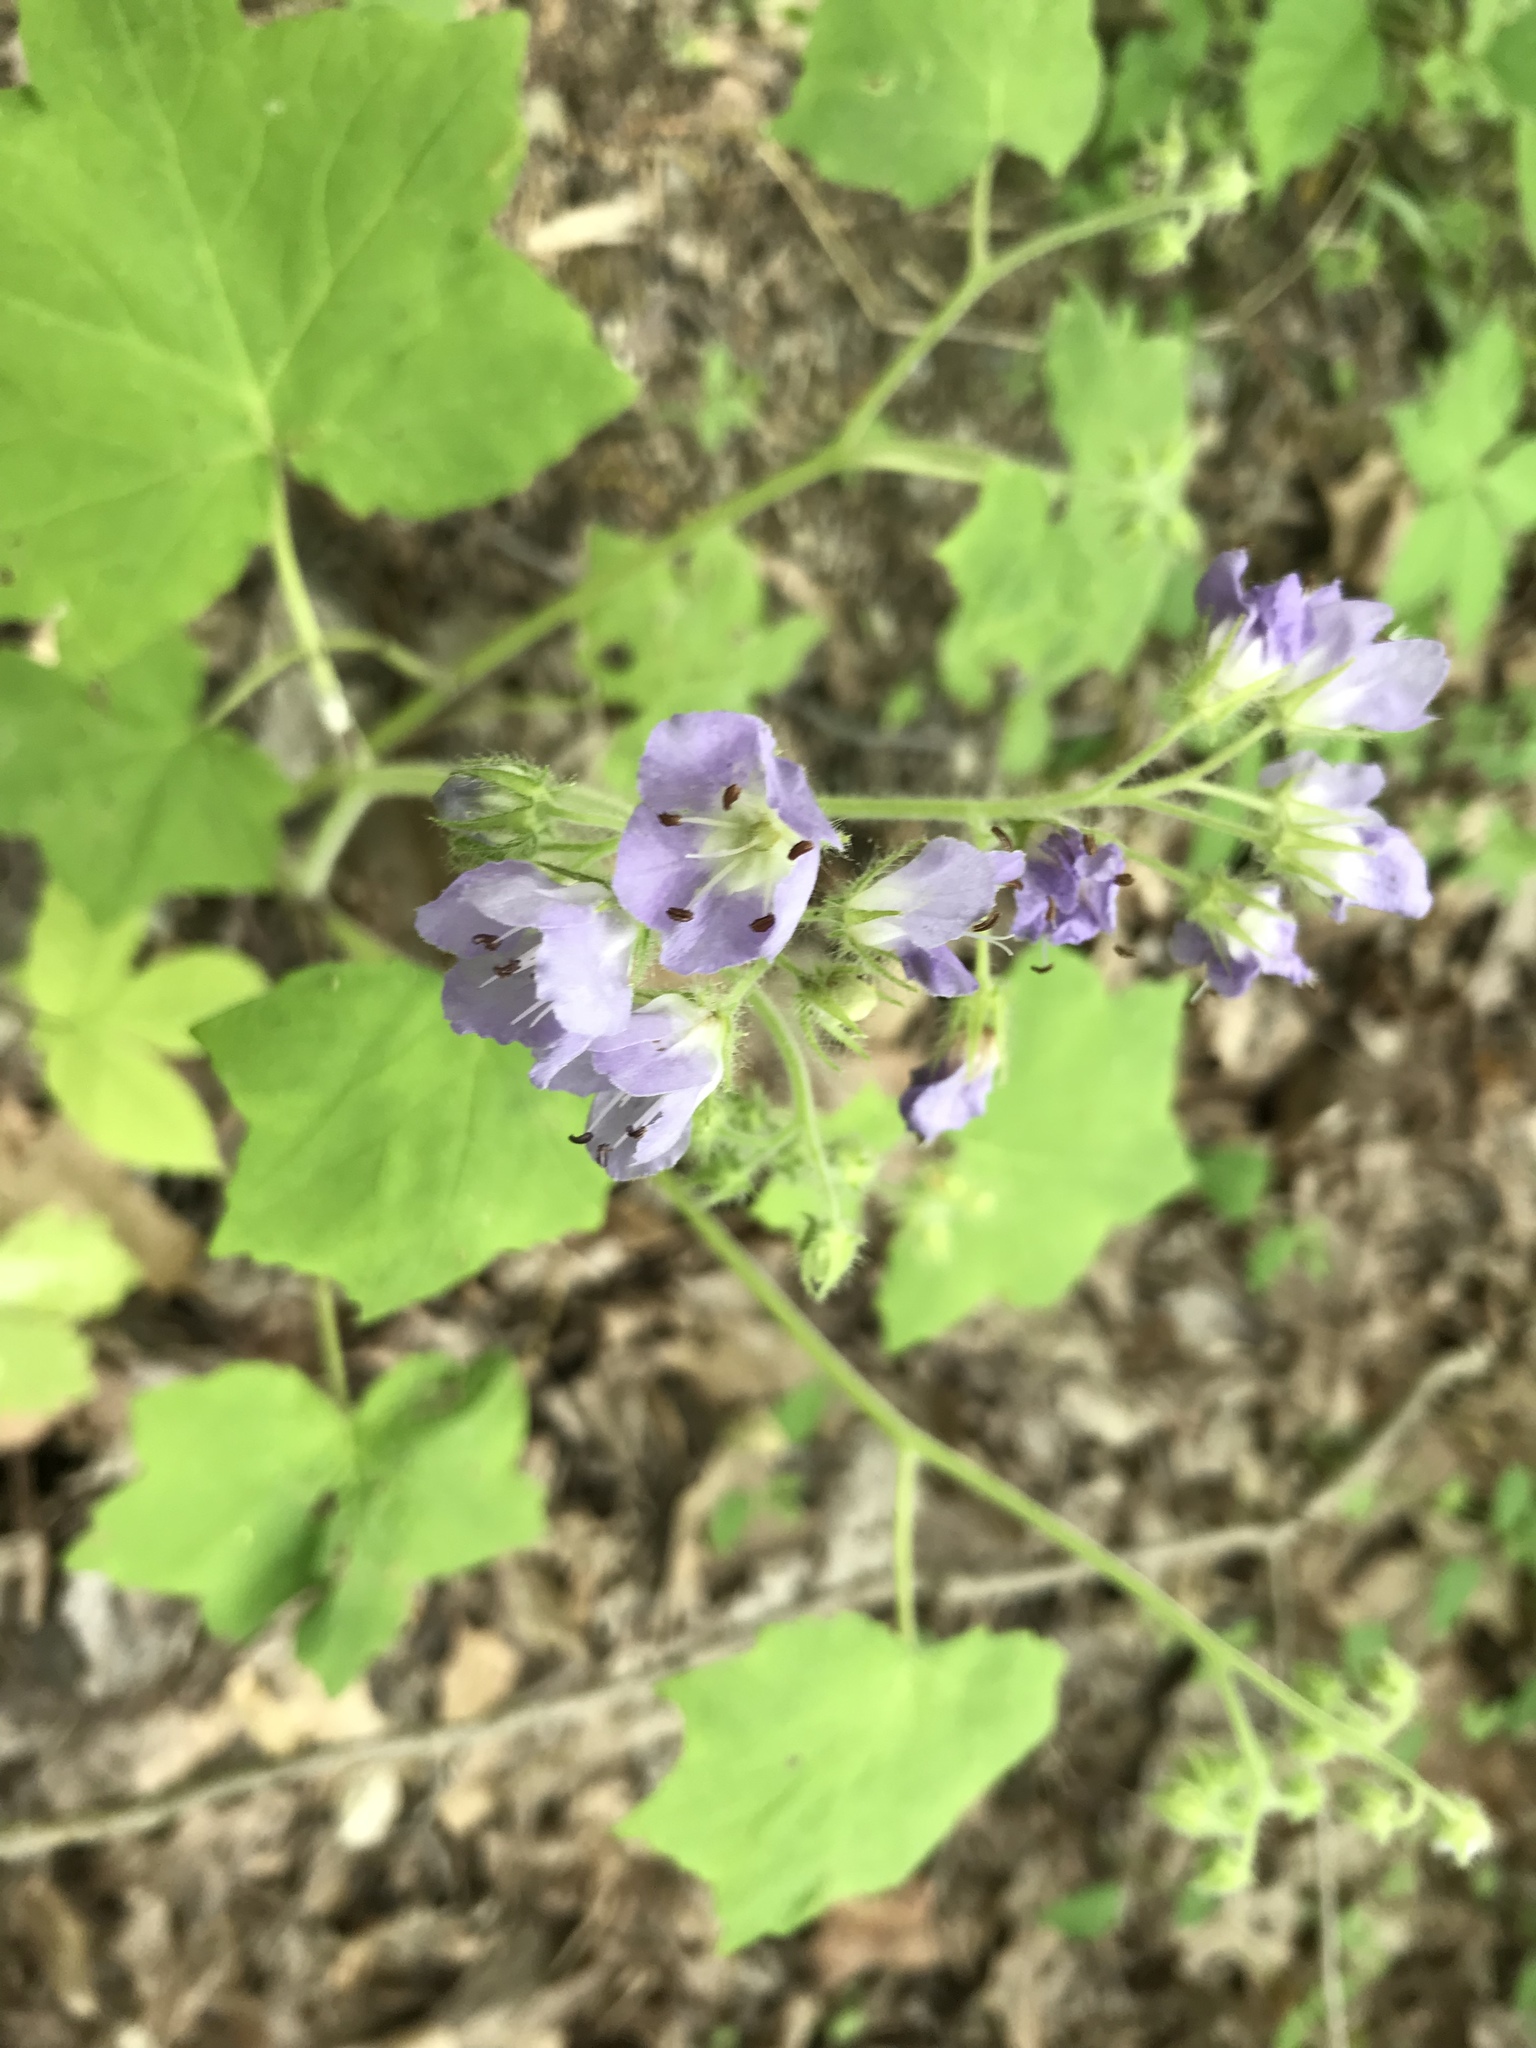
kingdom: Plantae
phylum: Tracheophyta
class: Magnoliopsida
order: Boraginales
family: Hydrophyllaceae
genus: Hydrophyllum
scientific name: Hydrophyllum appendiculatum
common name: Appendaged waterleaf
